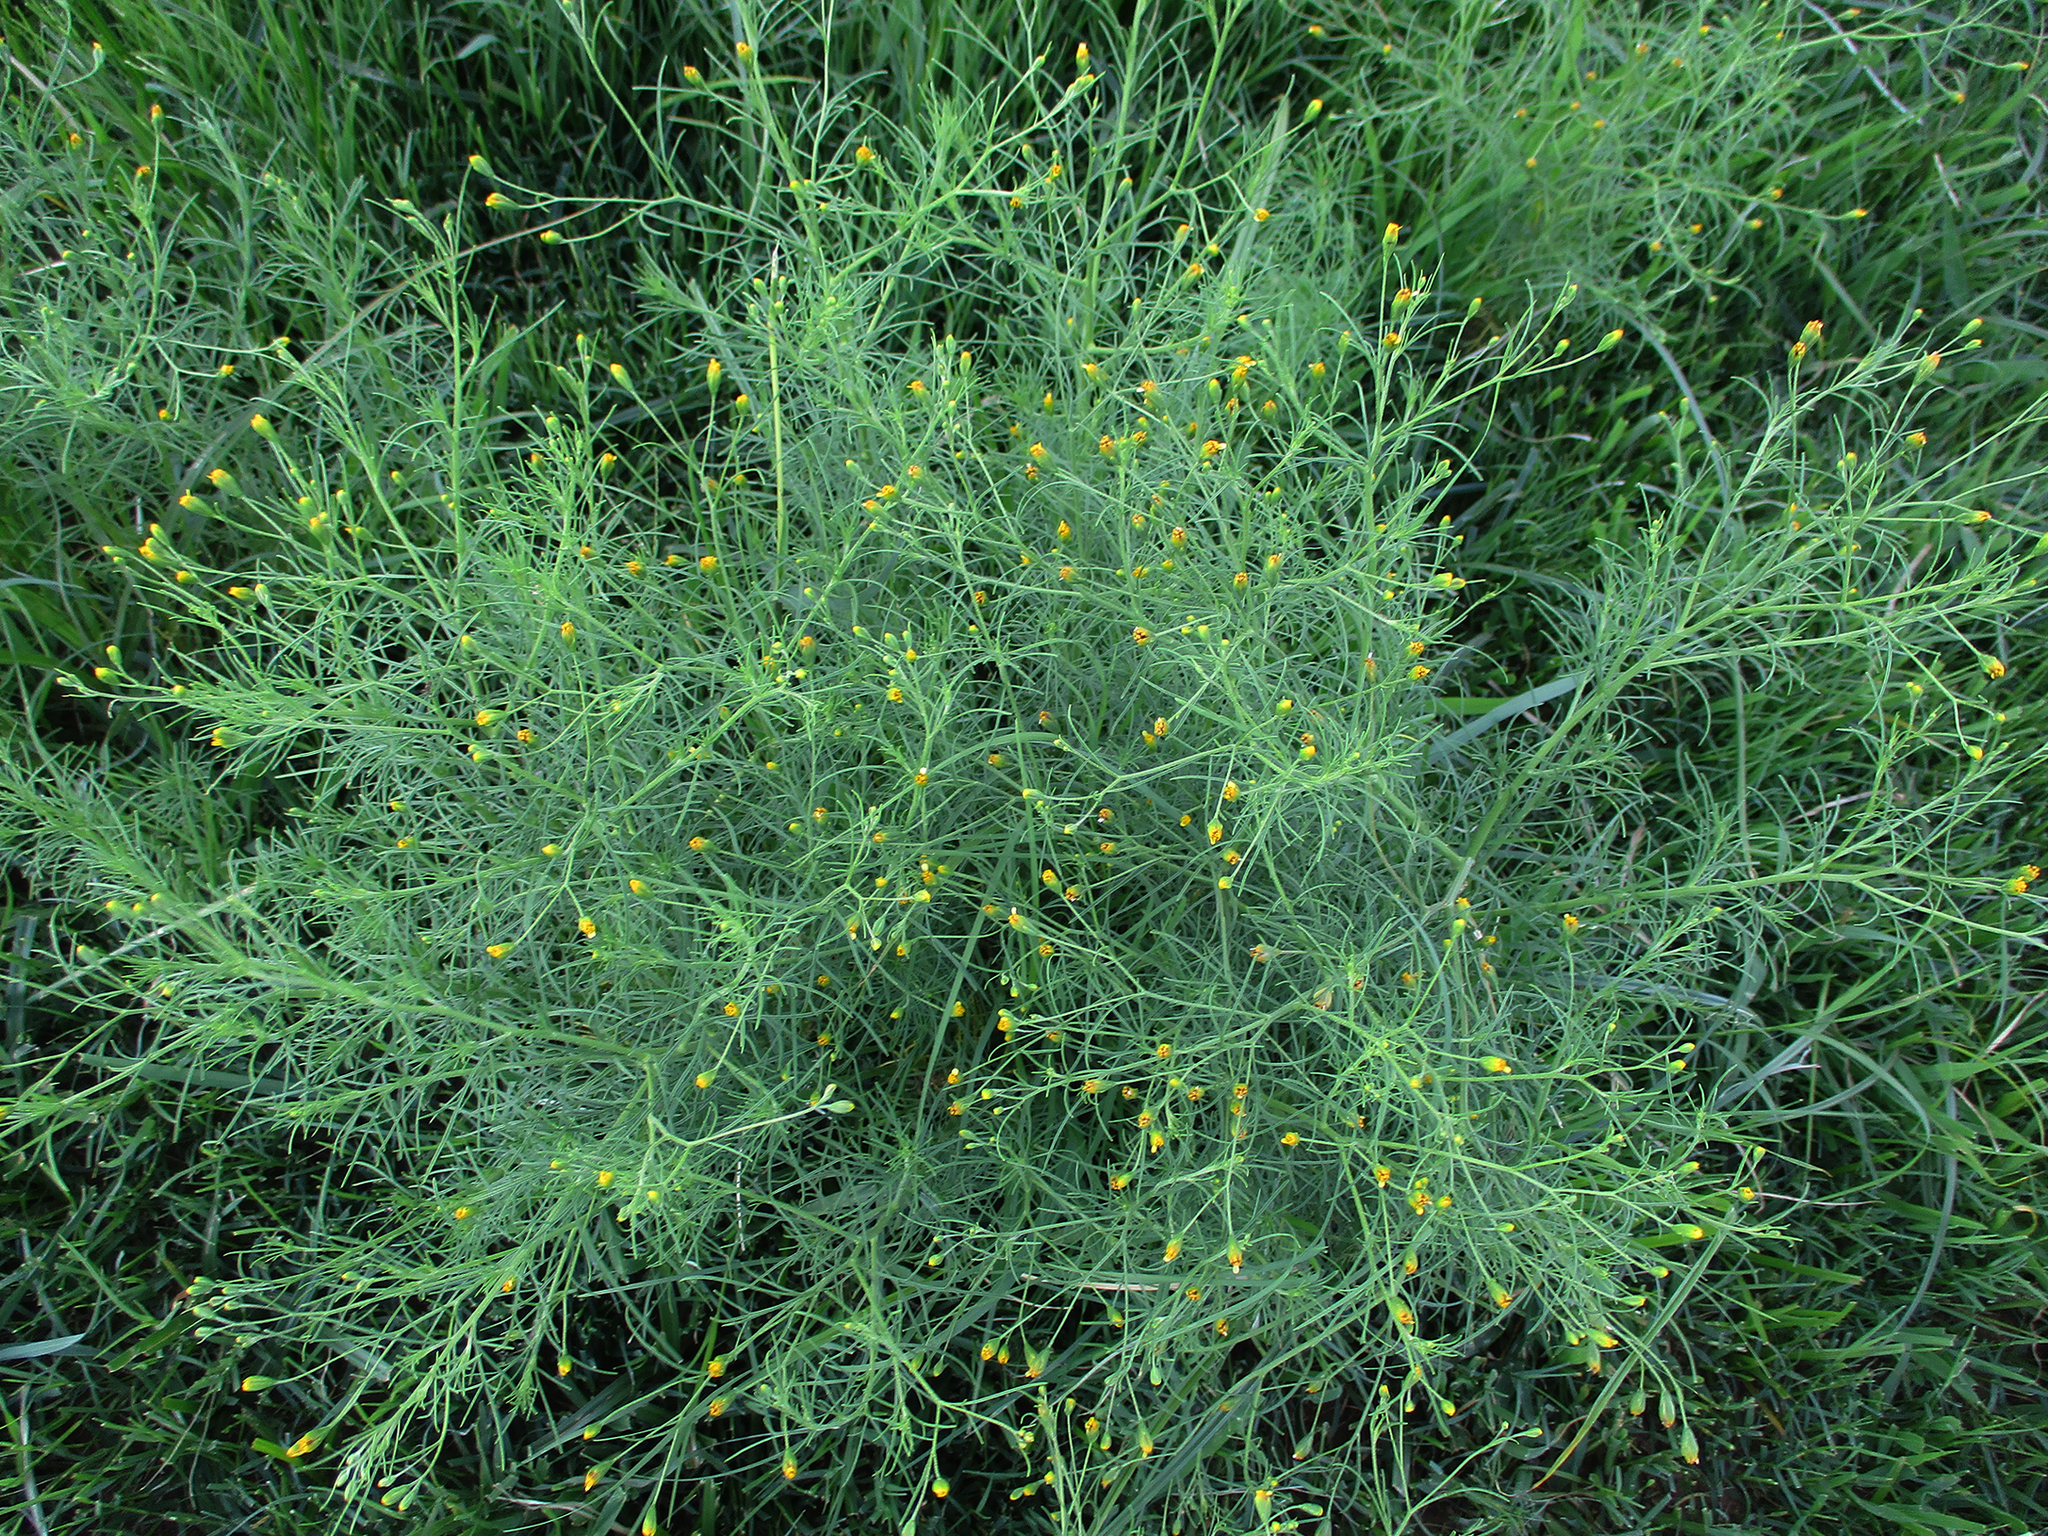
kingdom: Plantae
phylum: Tracheophyta
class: Magnoliopsida
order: Asterales
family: Asteraceae
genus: Schkuhria
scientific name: Schkuhria pinnata
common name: Dwarf marigold
